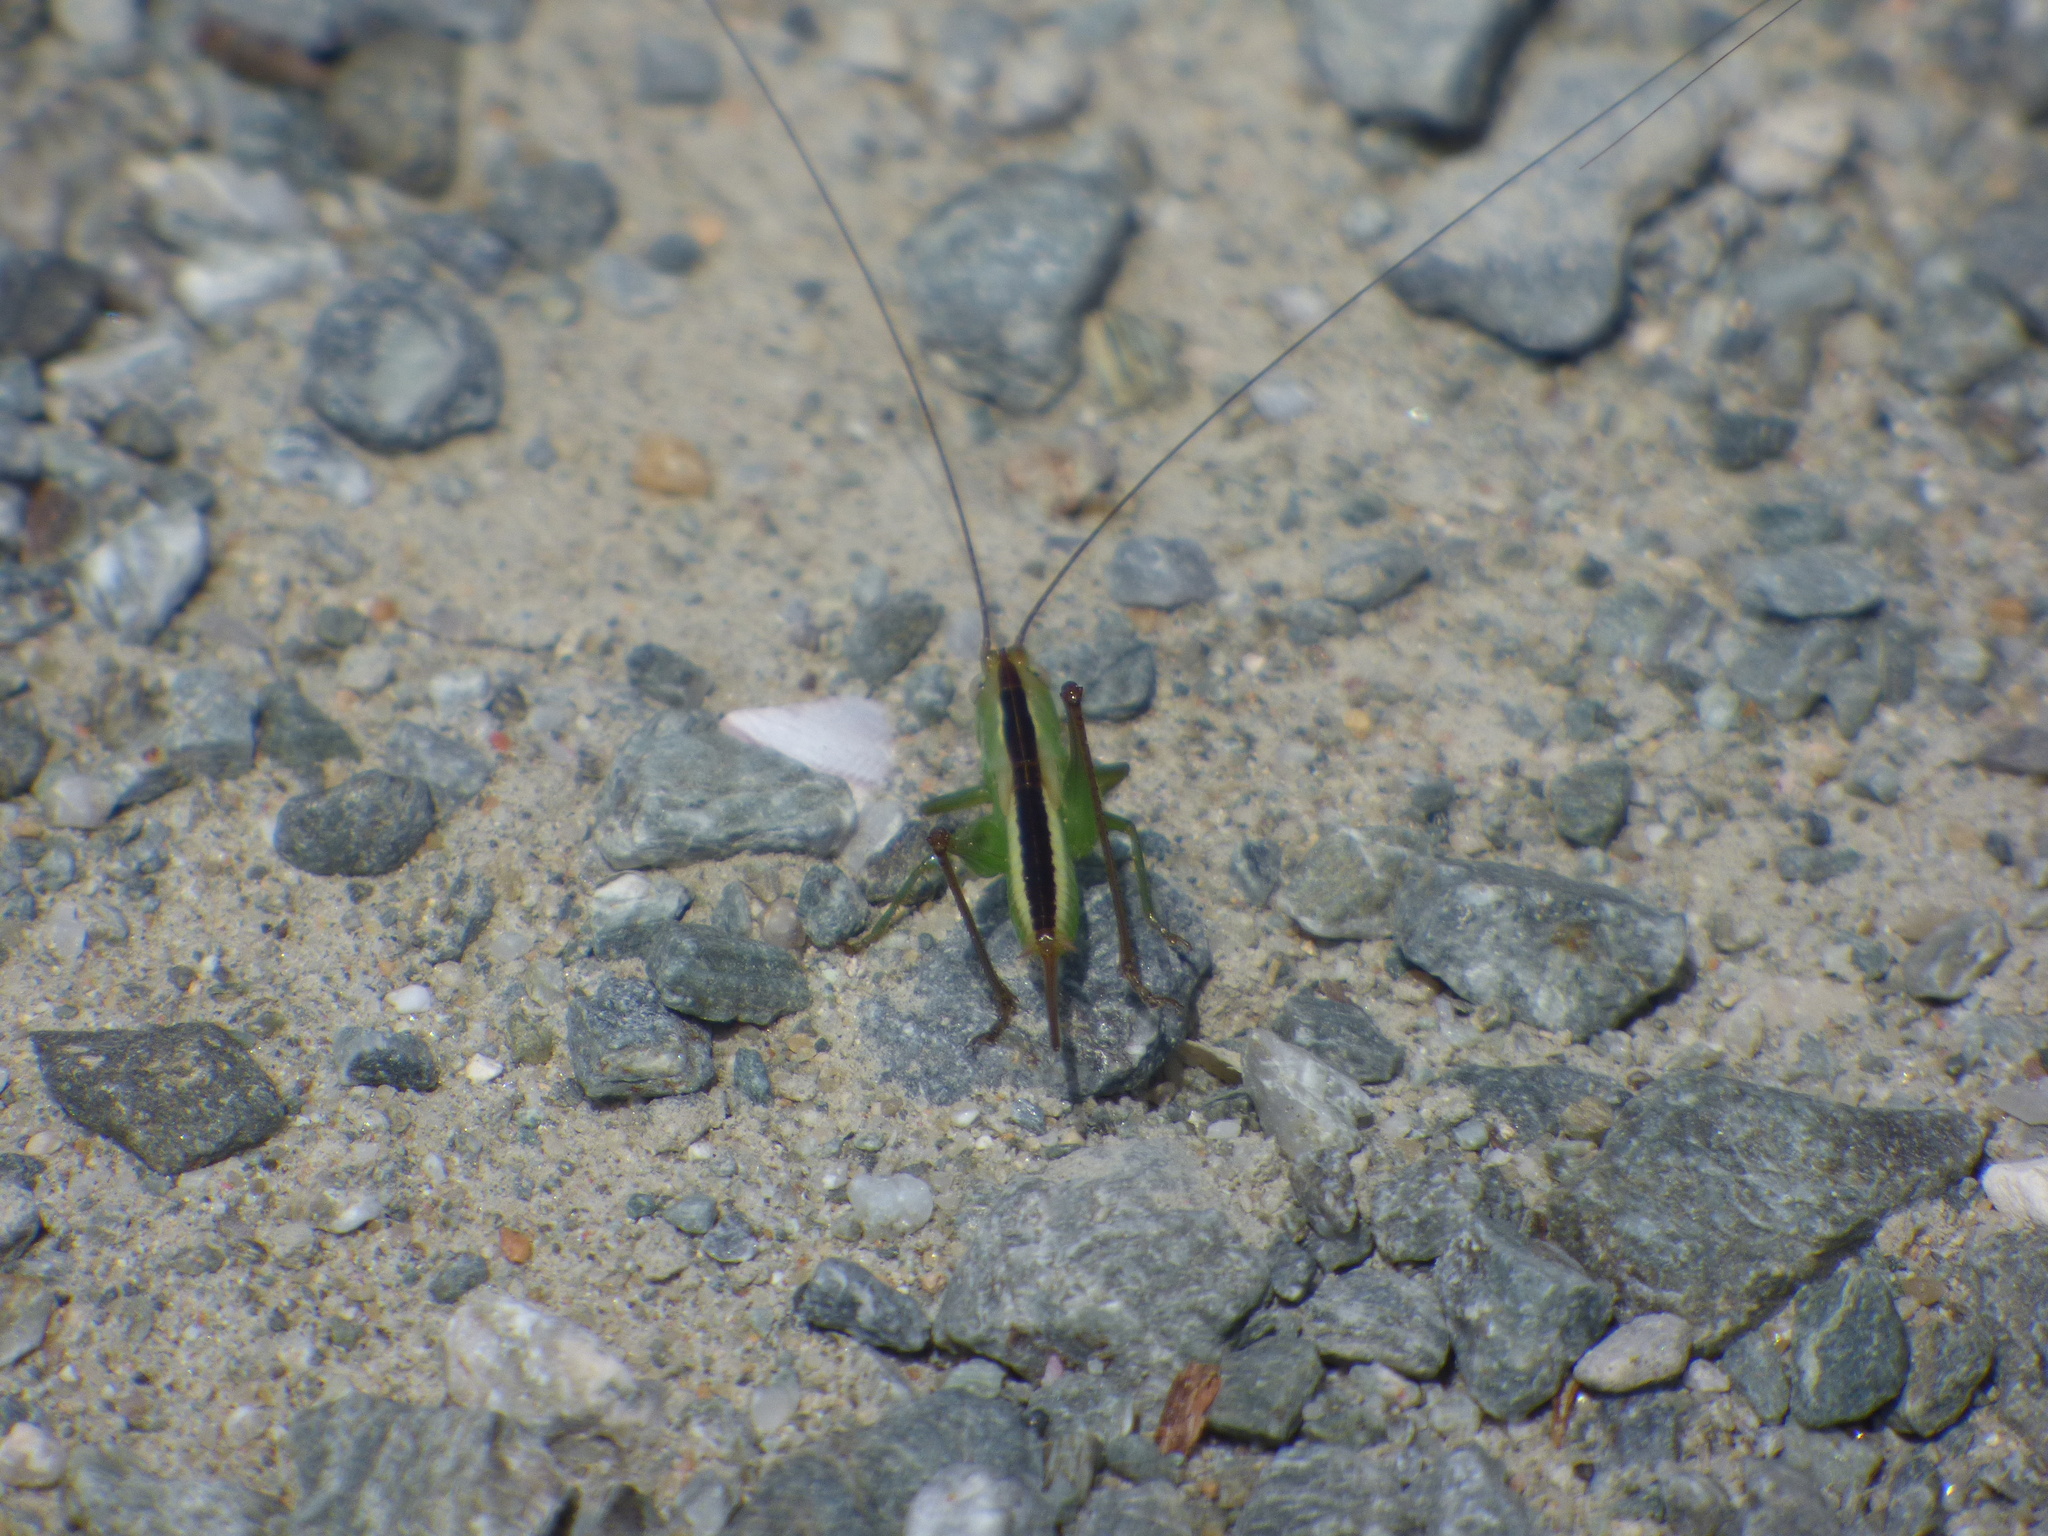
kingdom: Animalia
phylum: Arthropoda
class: Insecta
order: Orthoptera
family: Tettigoniidae
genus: Conocephalus
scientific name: Conocephalus japonicus
